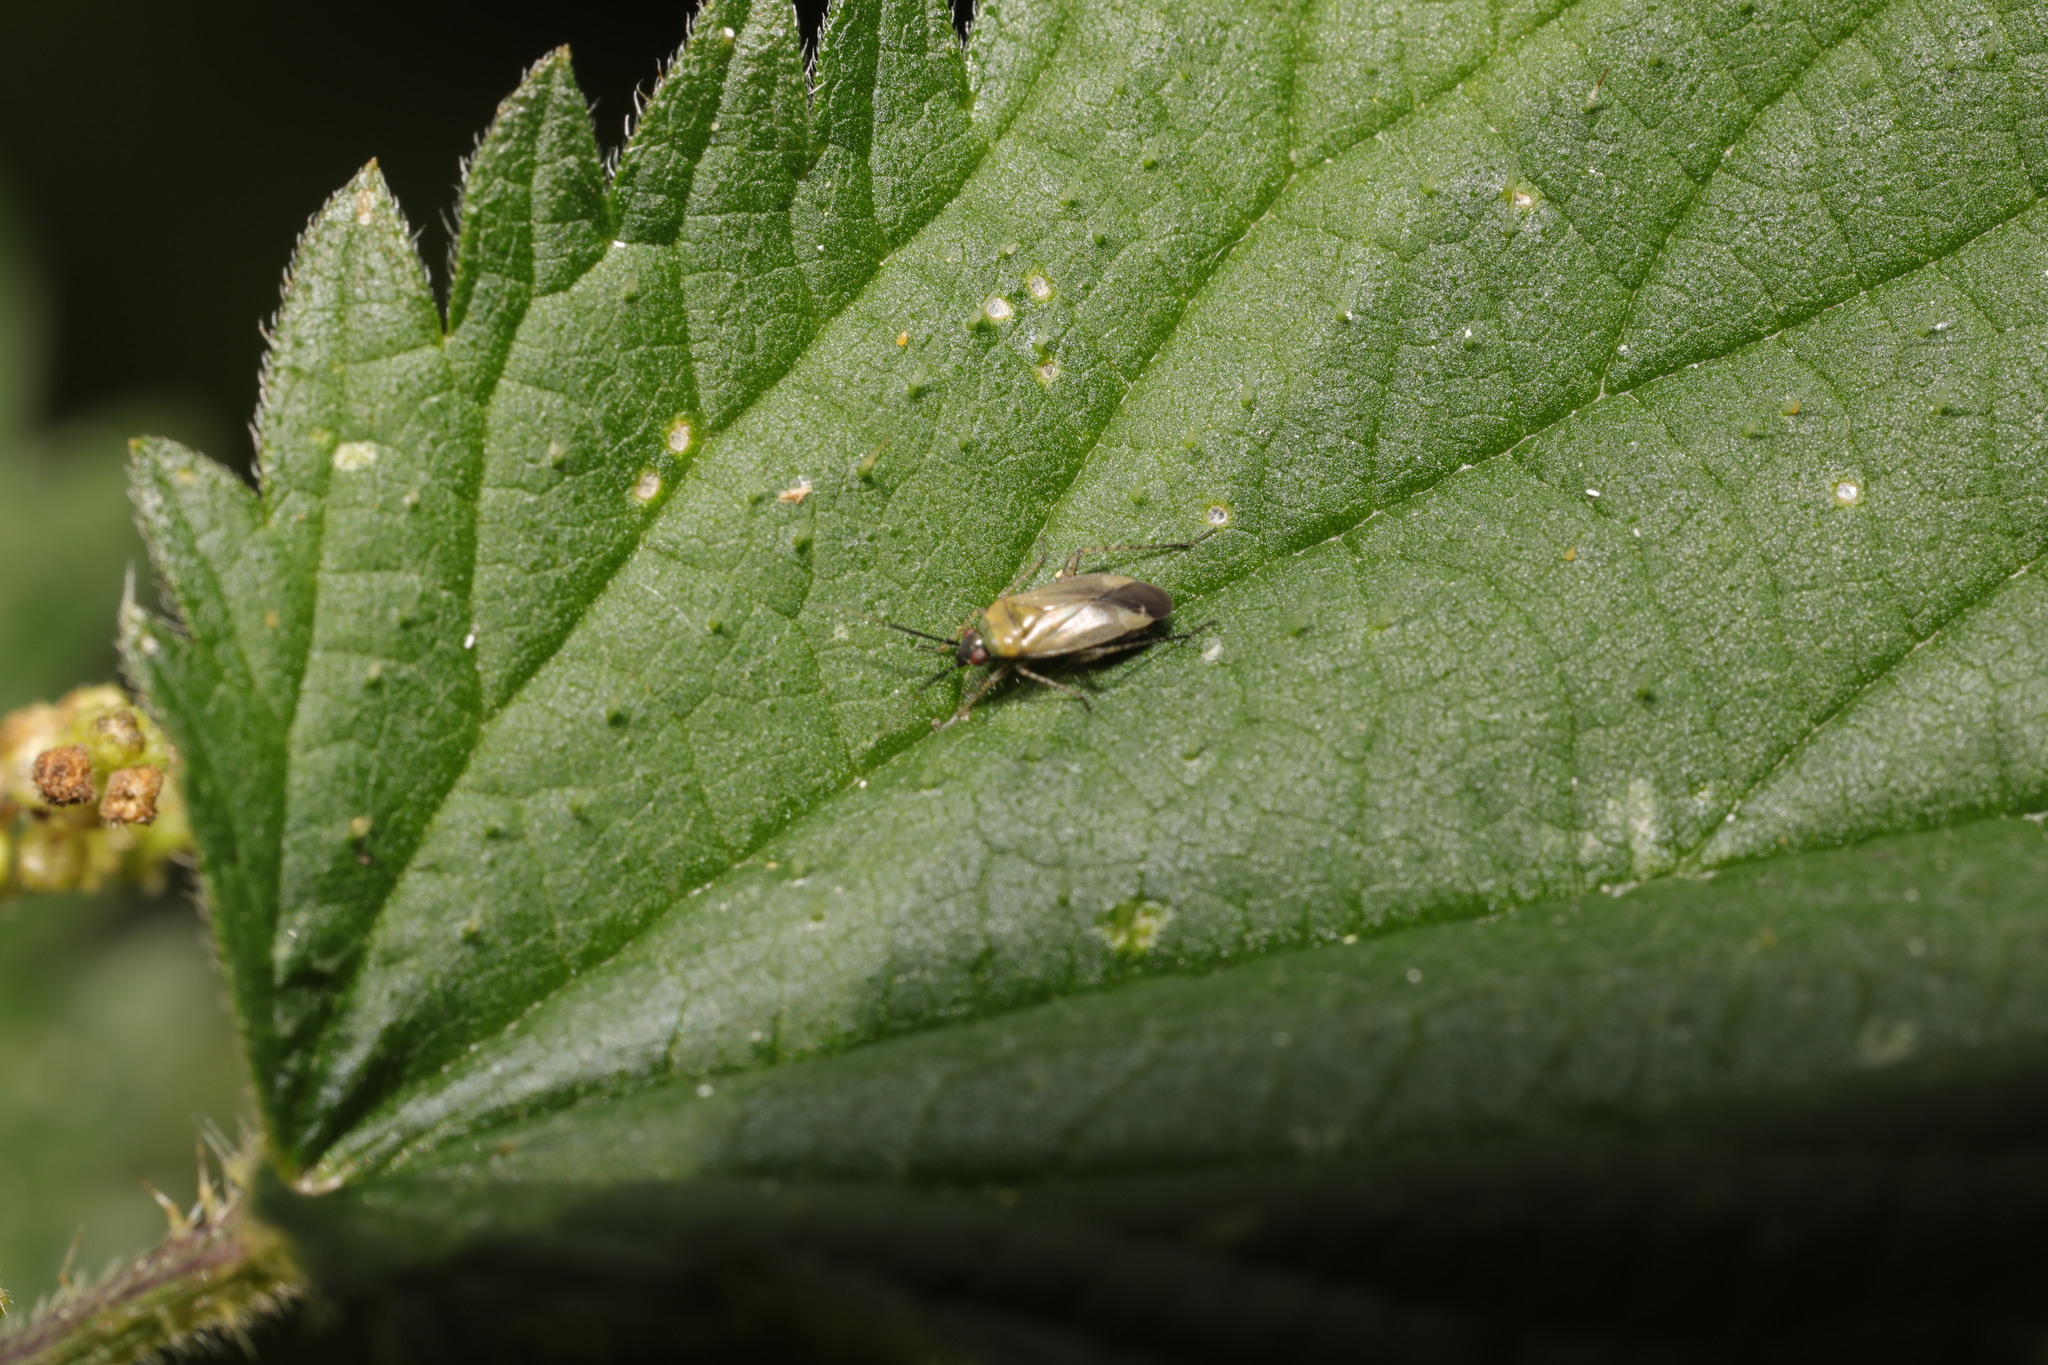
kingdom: Animalia
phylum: Arthropoda
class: Insecta
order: Hemiptera
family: Miridae
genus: Plagiognathus
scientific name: Plagiognathus arbustorum
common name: Plant bug
